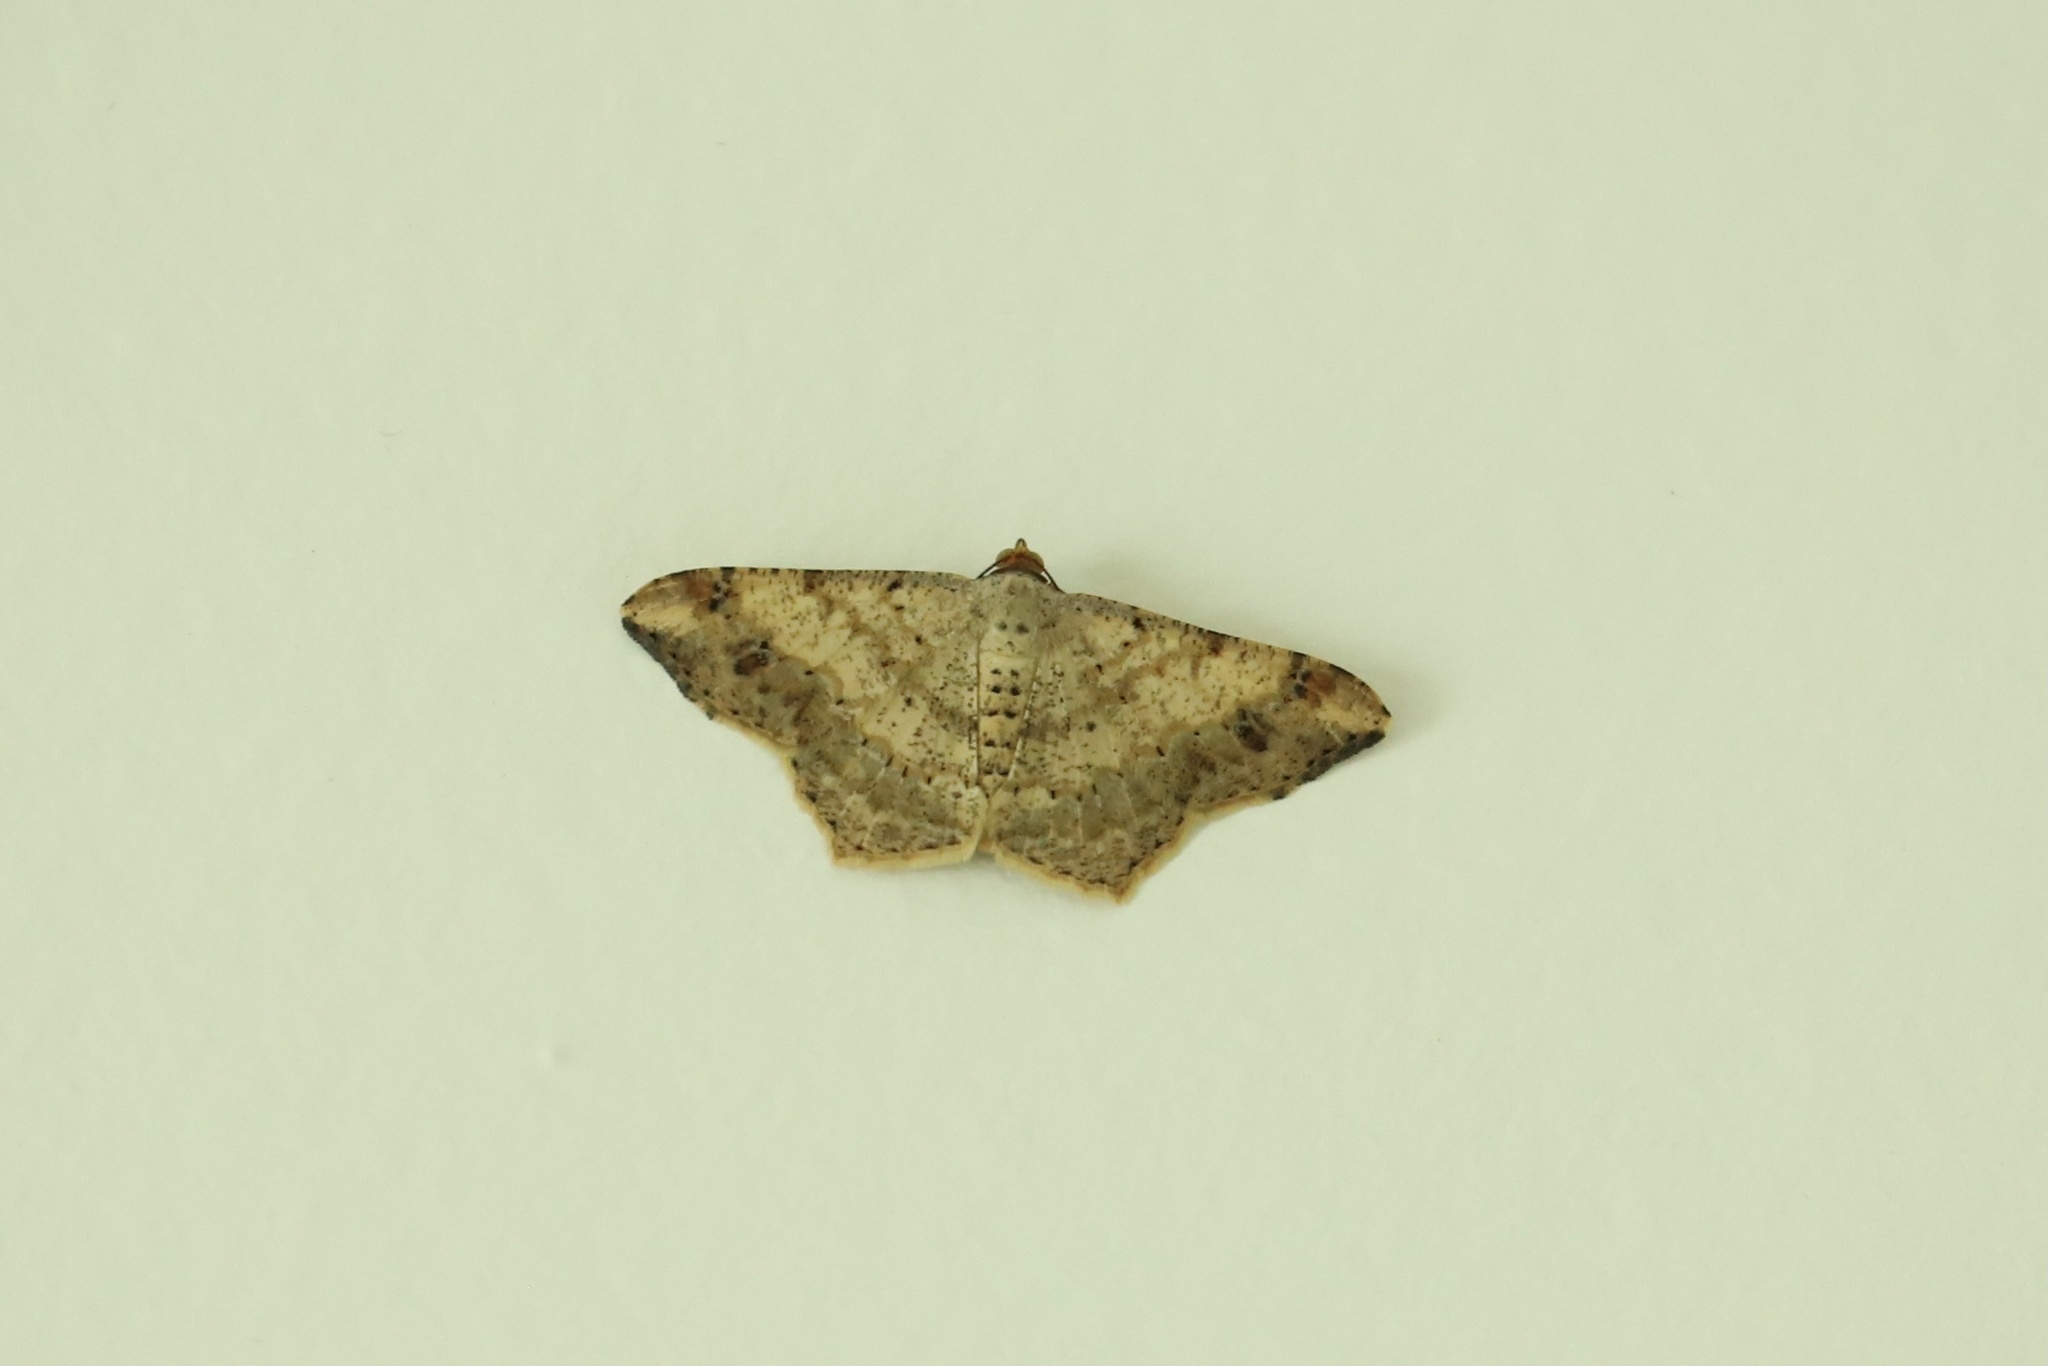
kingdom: Animalia
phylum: Arthropoda
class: Insecta
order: Lepidoptera
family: Geometridae
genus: Macaria
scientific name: Macaria abydata
